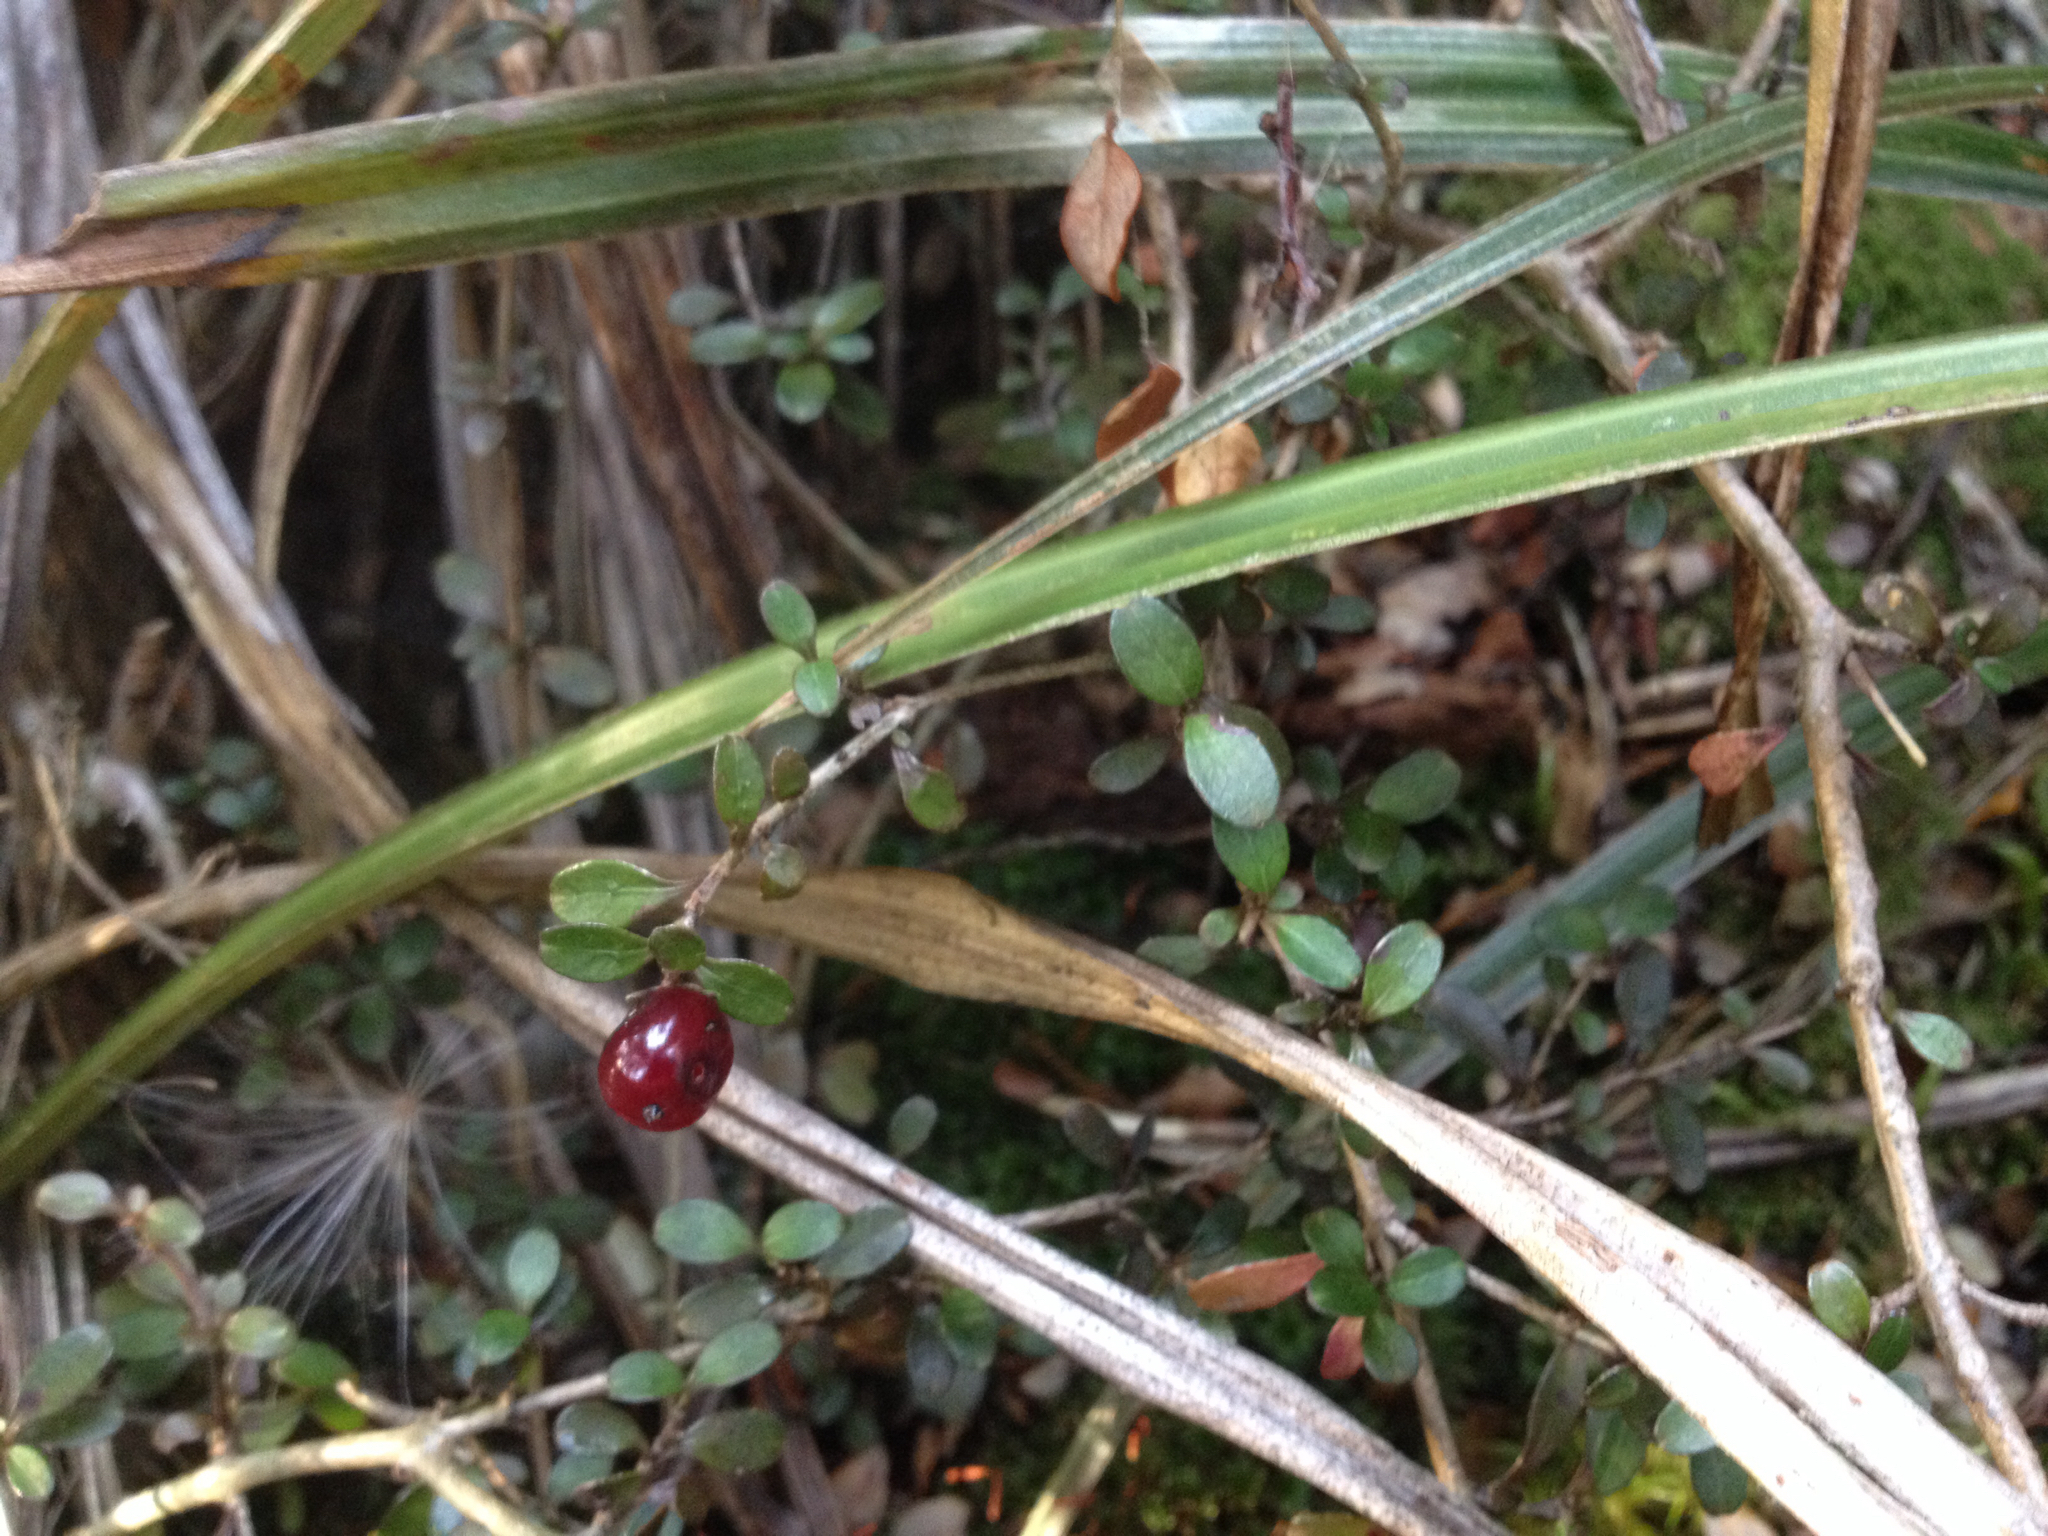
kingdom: Plantae
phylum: Tracheophyta
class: Magnoliopsida
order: Gentianales
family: Rubiaceae
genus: Coprosma
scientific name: Coprosma colensoi
